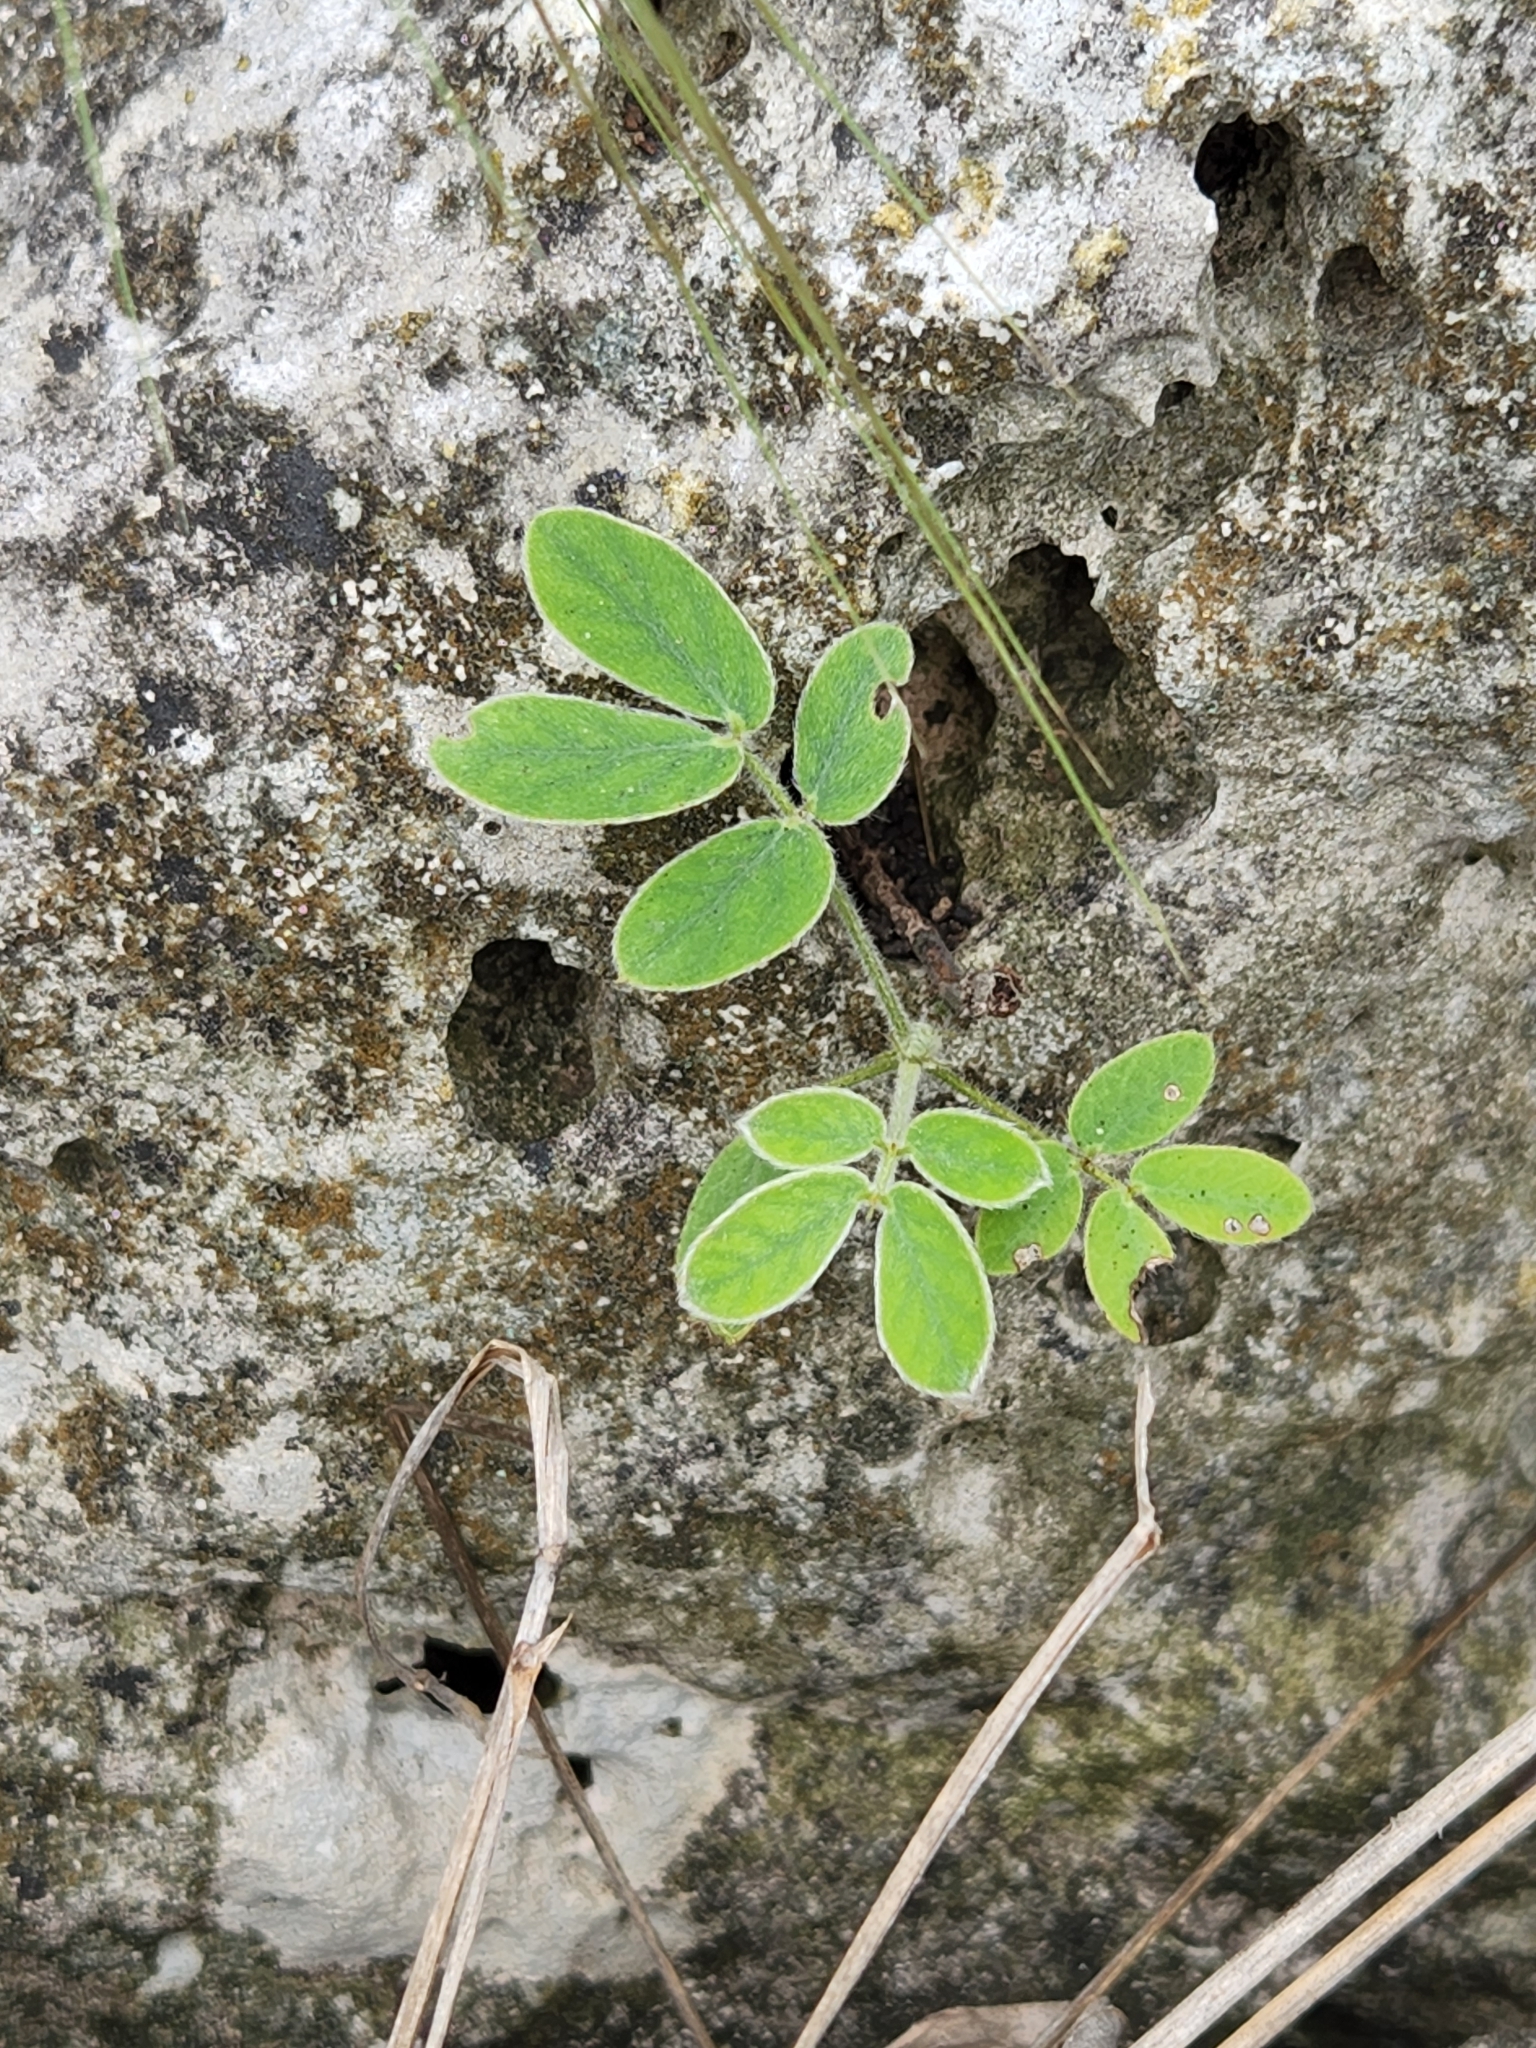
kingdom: Plantae
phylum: Tracheophyta
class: Magnoliopsida
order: Fabales
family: Fabaceae
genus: Senna
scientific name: Senna lindheimeriana
